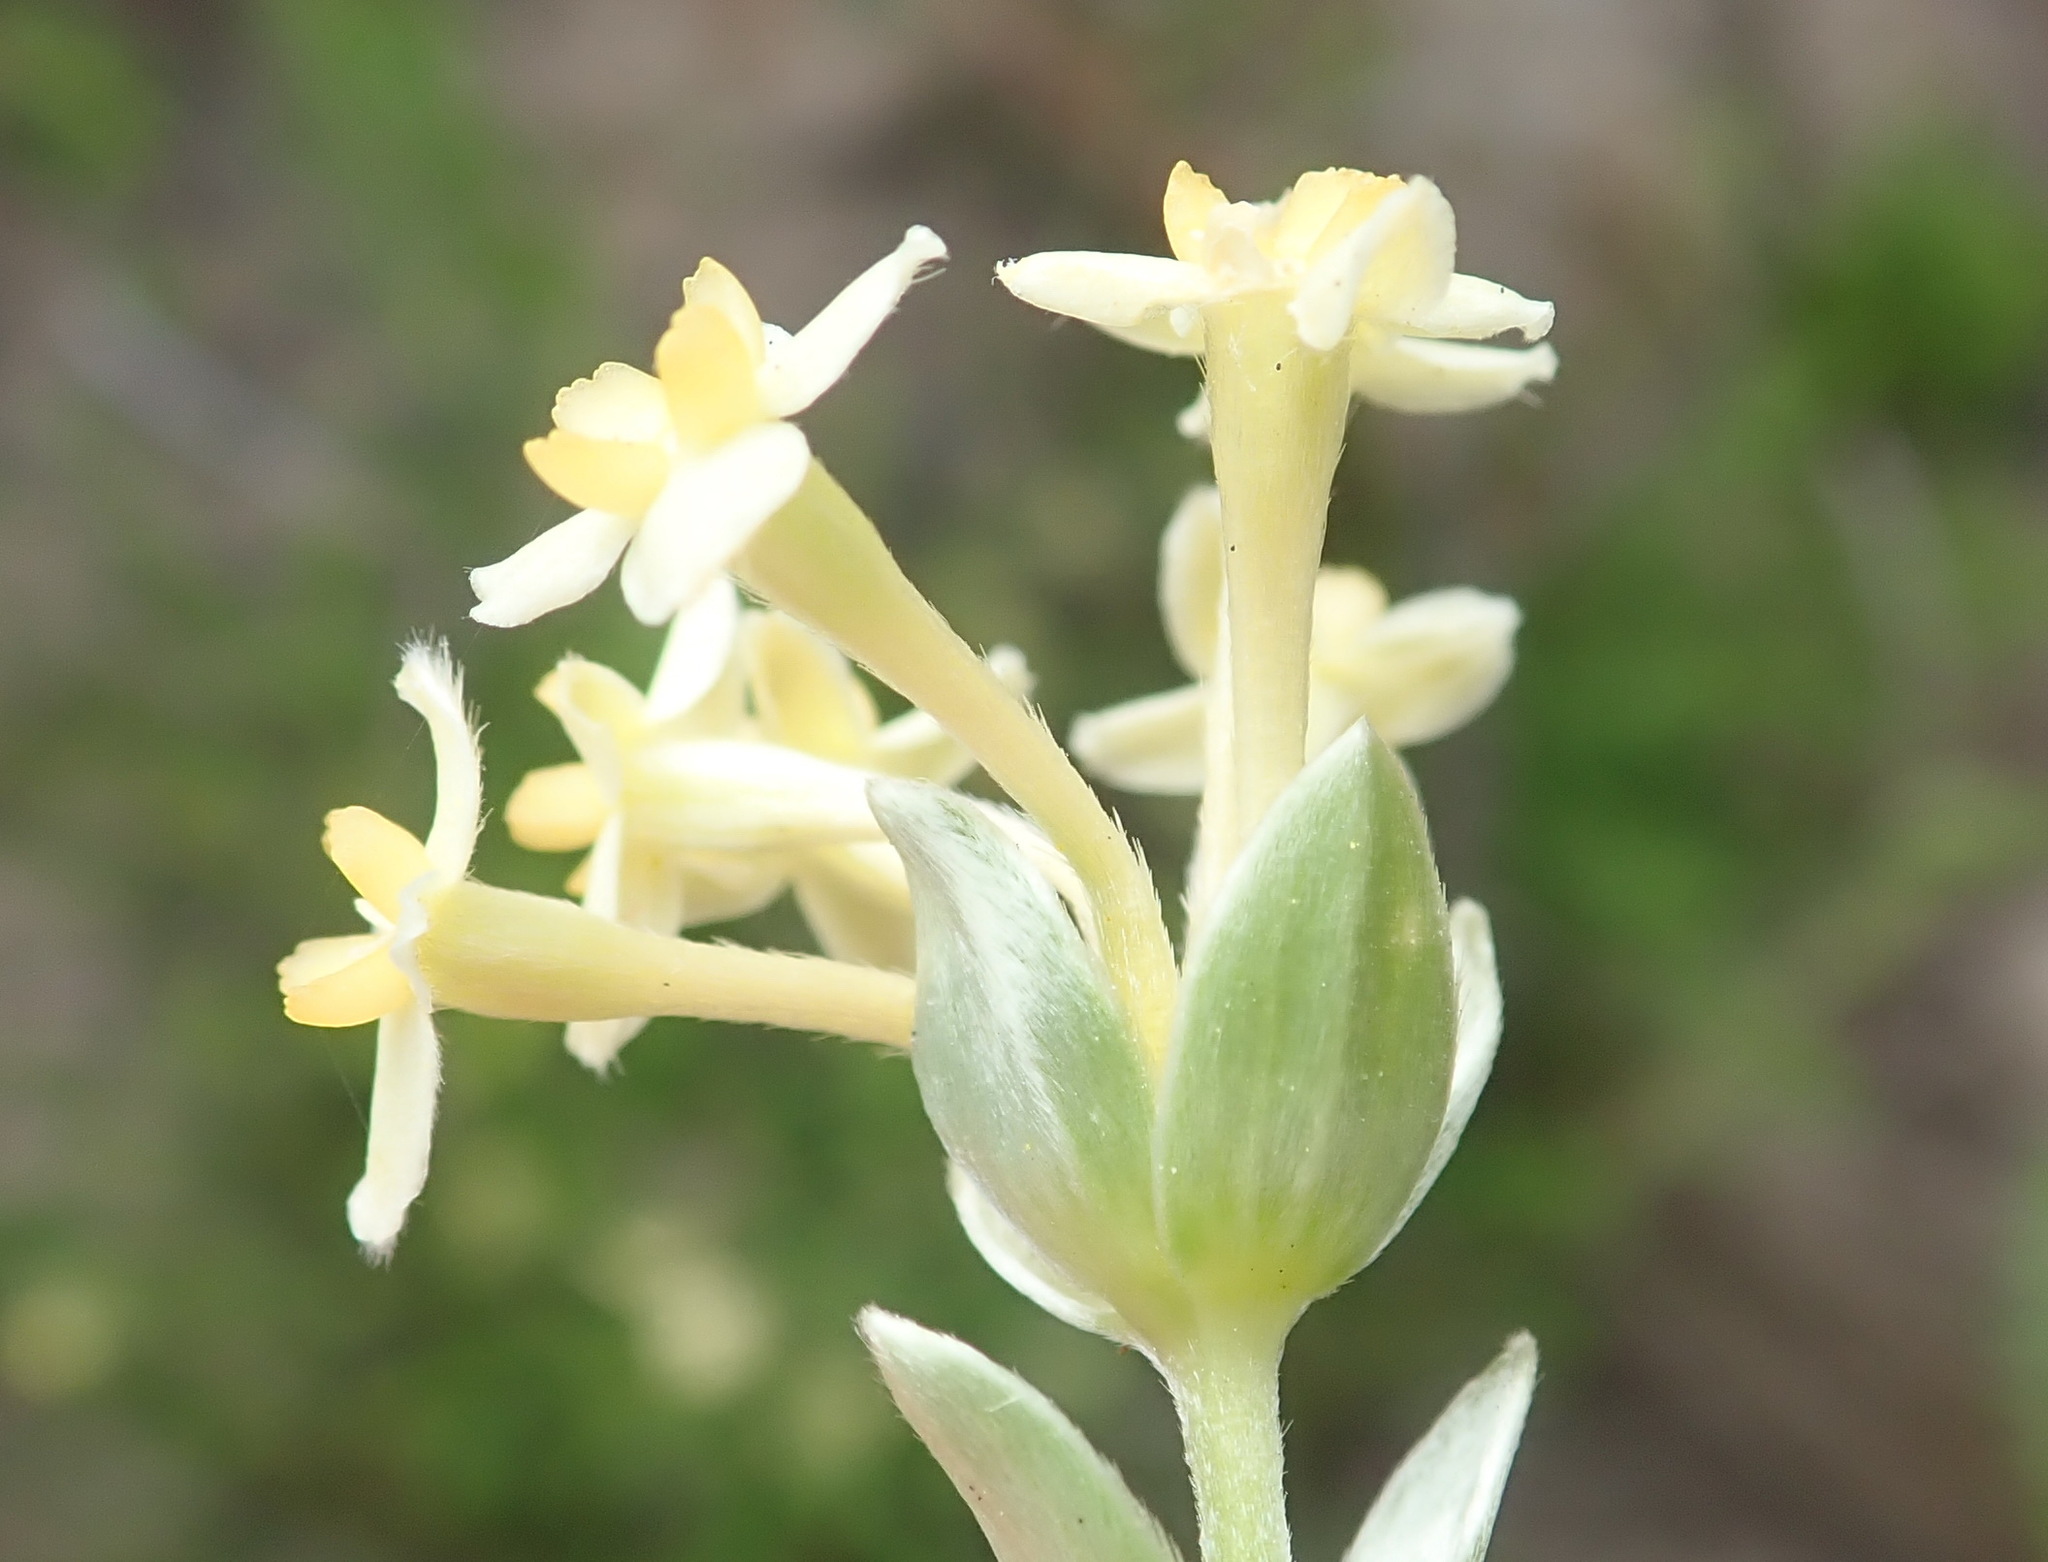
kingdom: Plantae
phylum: Tracheophyta
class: Magnoliopsida
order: Malvales
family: Thymelaeaceae
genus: Gnidia
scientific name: Gnidia chrysophylla
